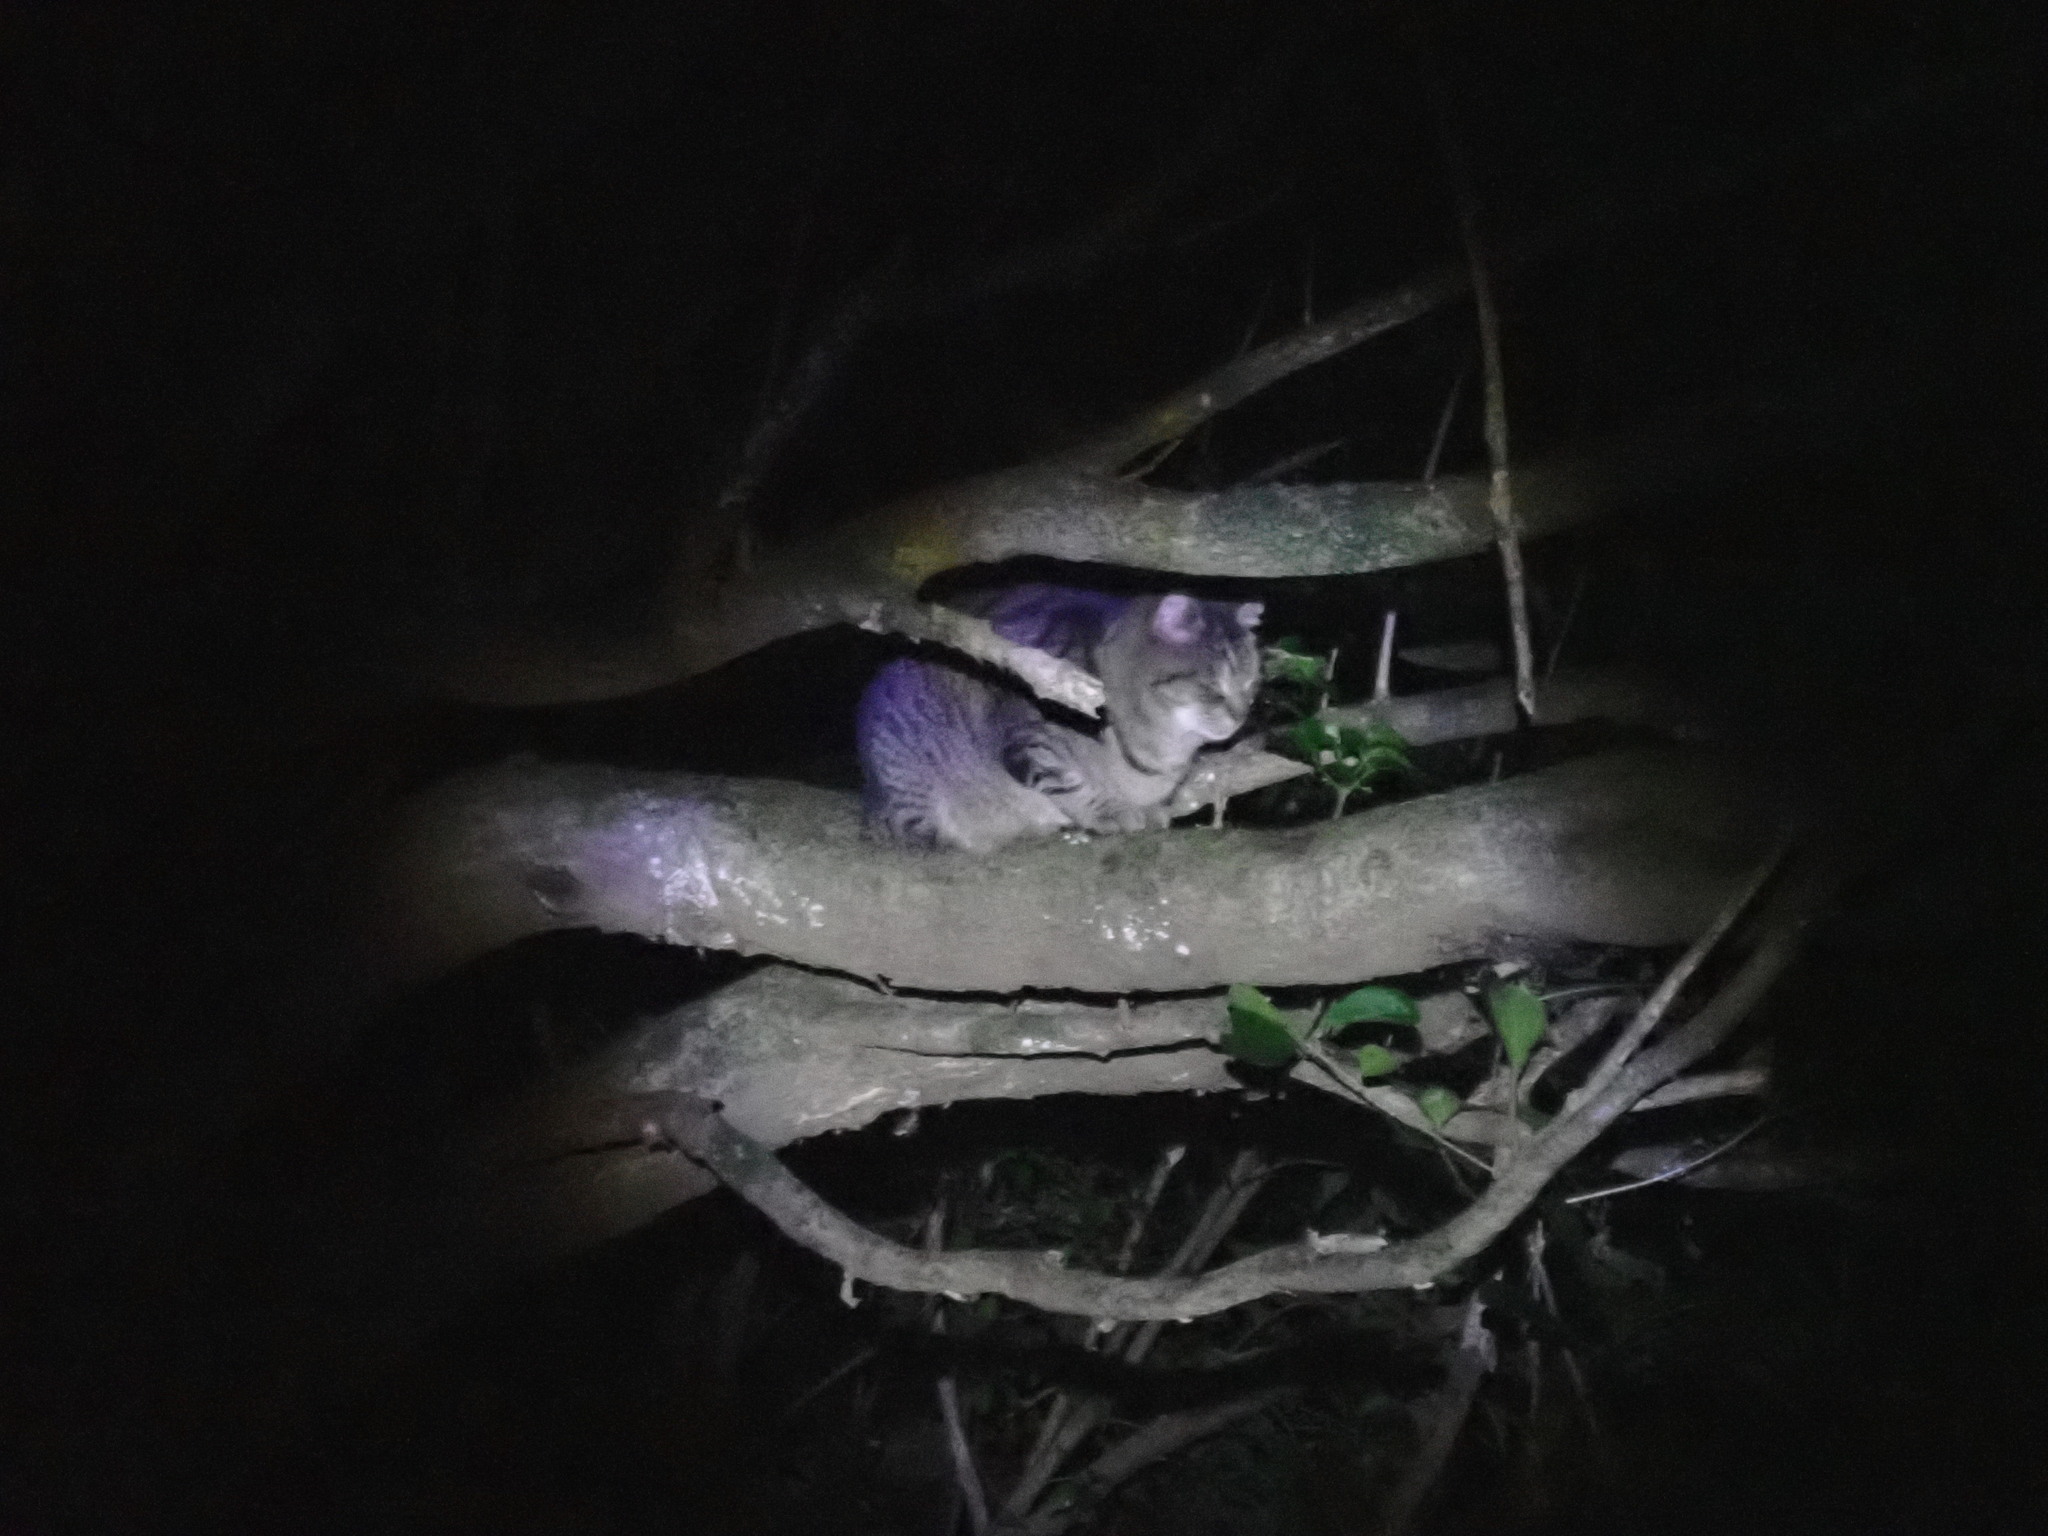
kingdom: Animalia
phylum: Chordata
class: Mammalia
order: Carnivora
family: Felidae
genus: Felis
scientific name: Felis catus
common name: Domestic cat
